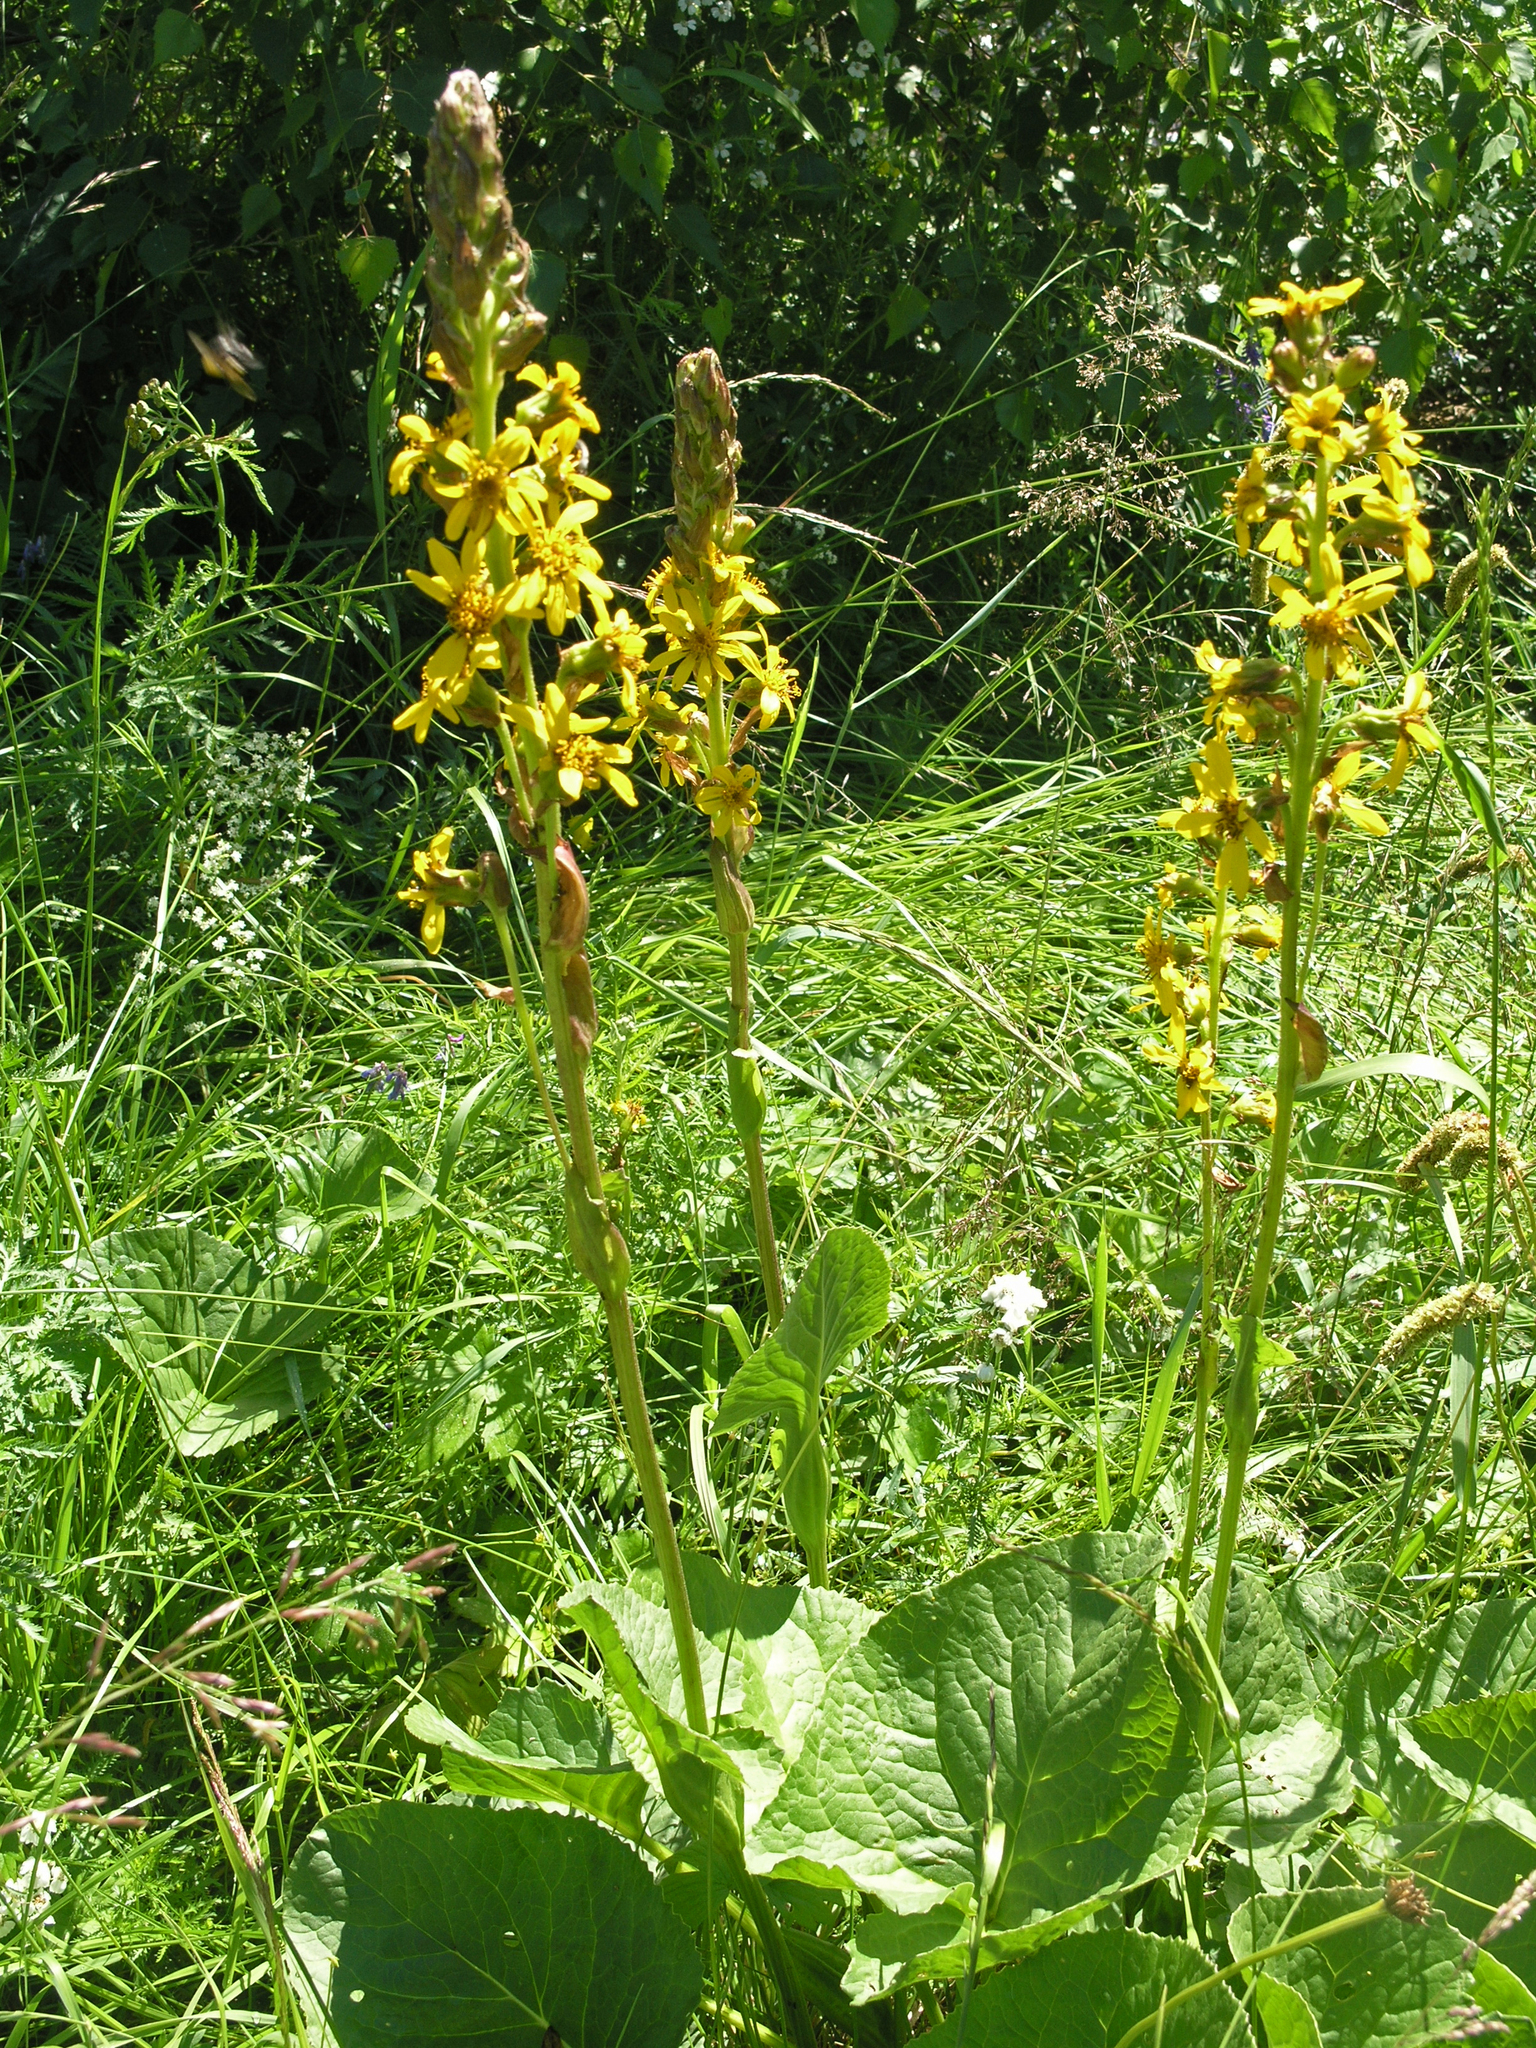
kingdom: Plantae
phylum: Tracheophyta
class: Magnoliopsida
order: Asterales
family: Asteraceae
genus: Ligularia
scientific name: Ligularia sibirica
